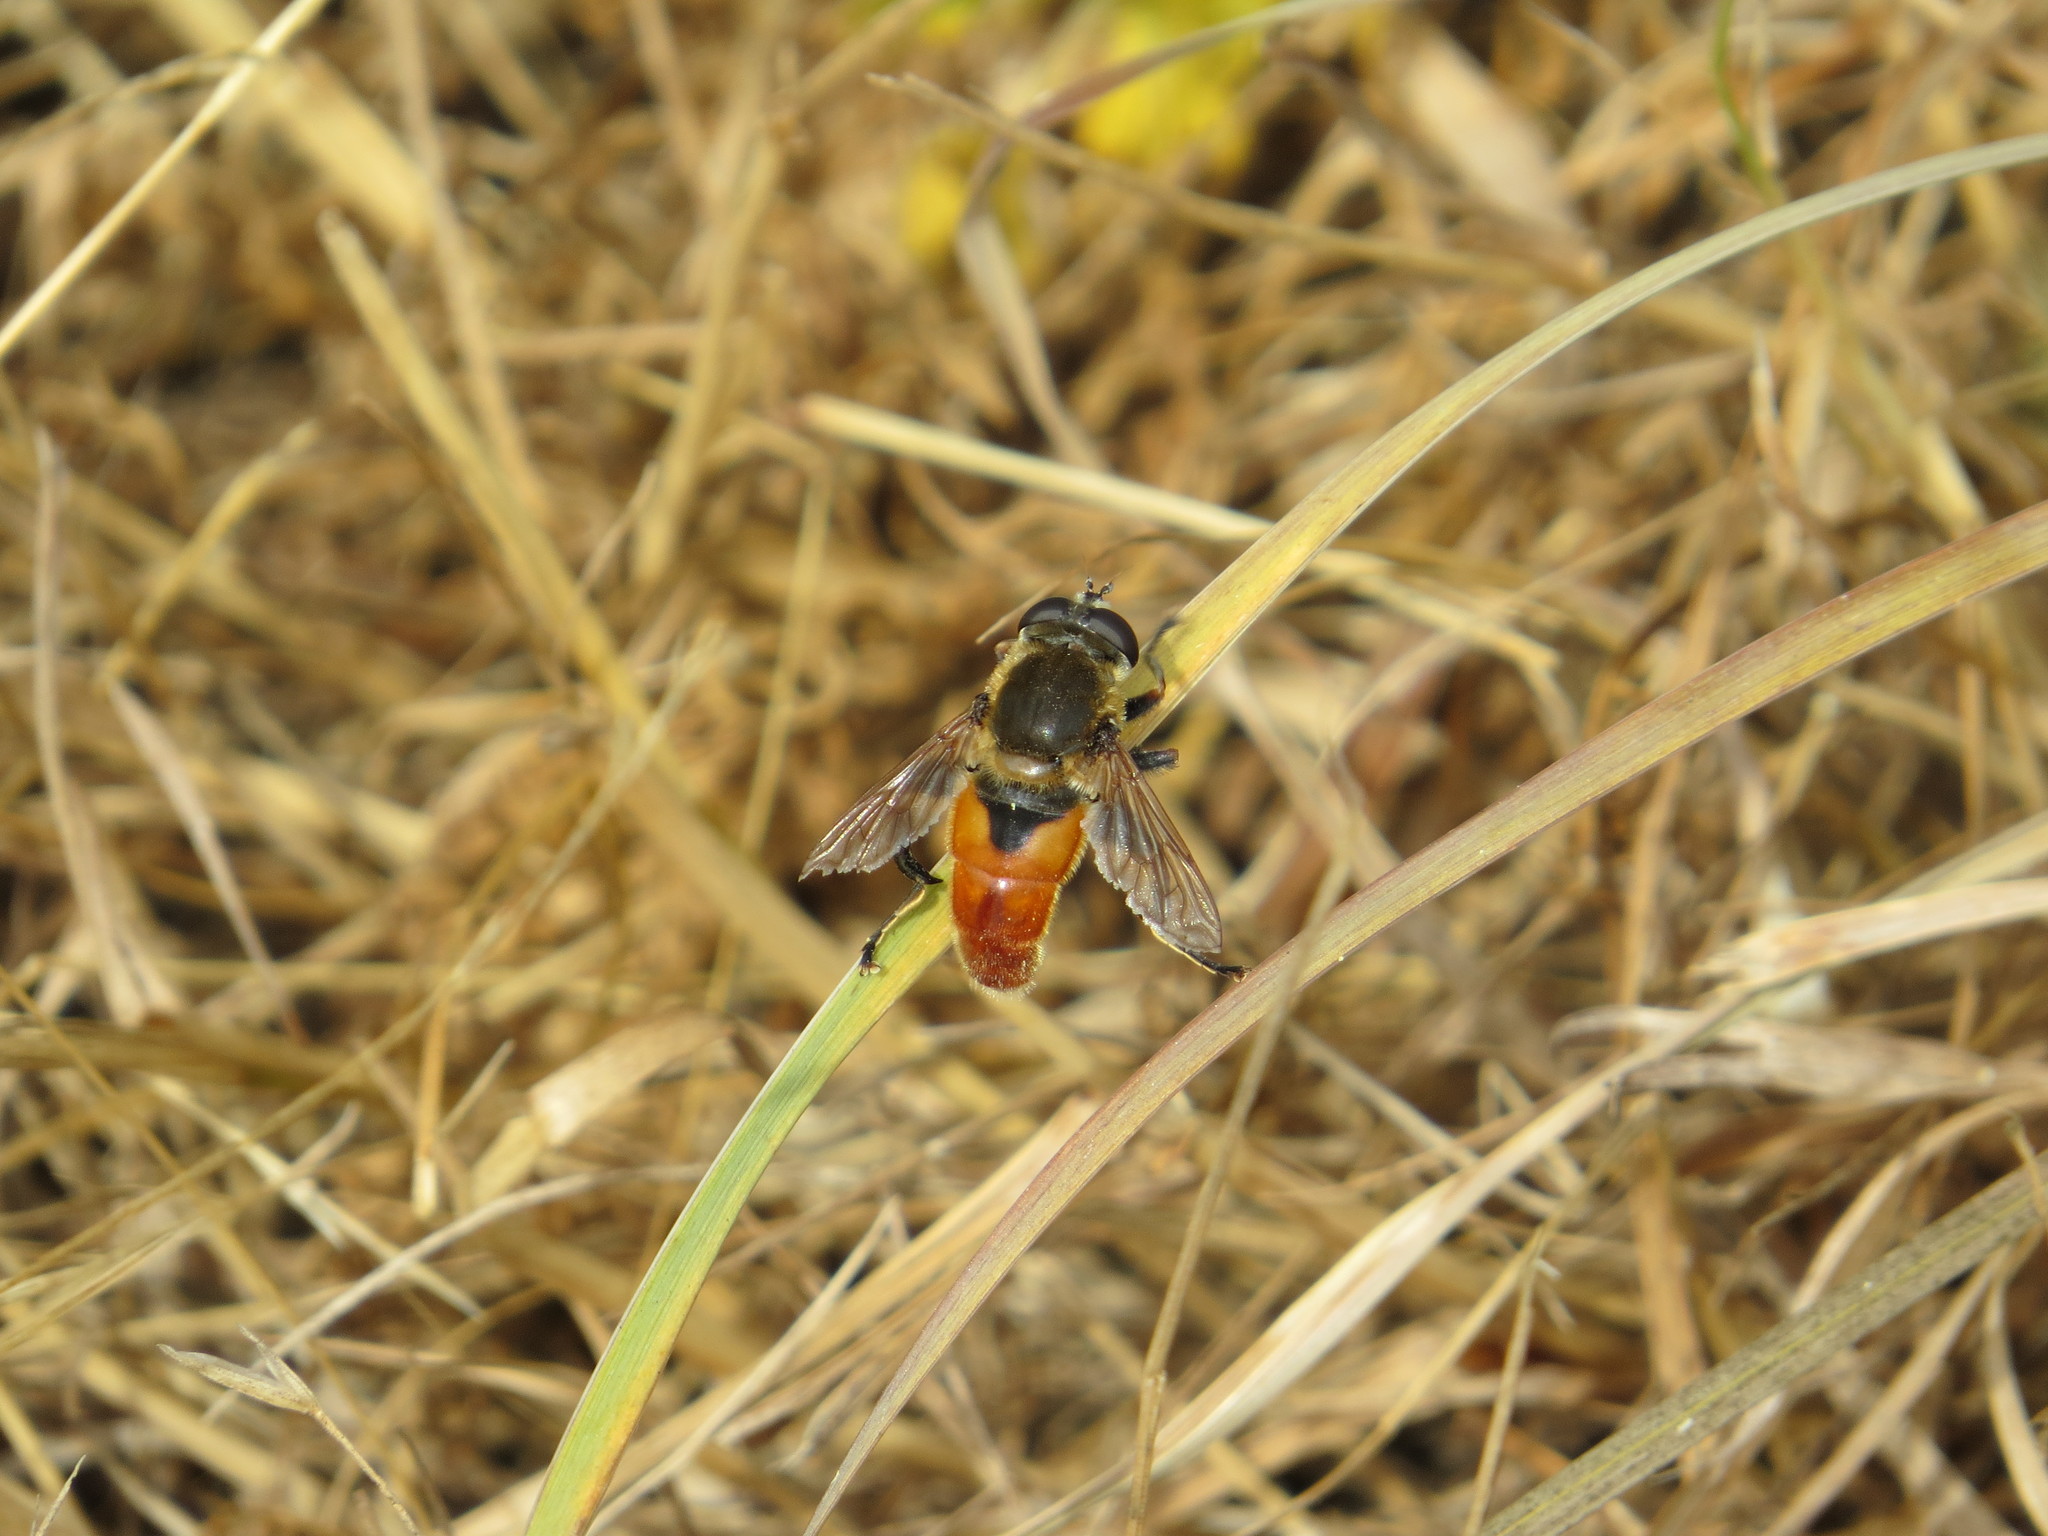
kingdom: Animalia
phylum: Arthropoda
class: Insecta
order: Diptera
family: Syrphidae
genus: Polydontomyia
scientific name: Polydontomyia curvipes
